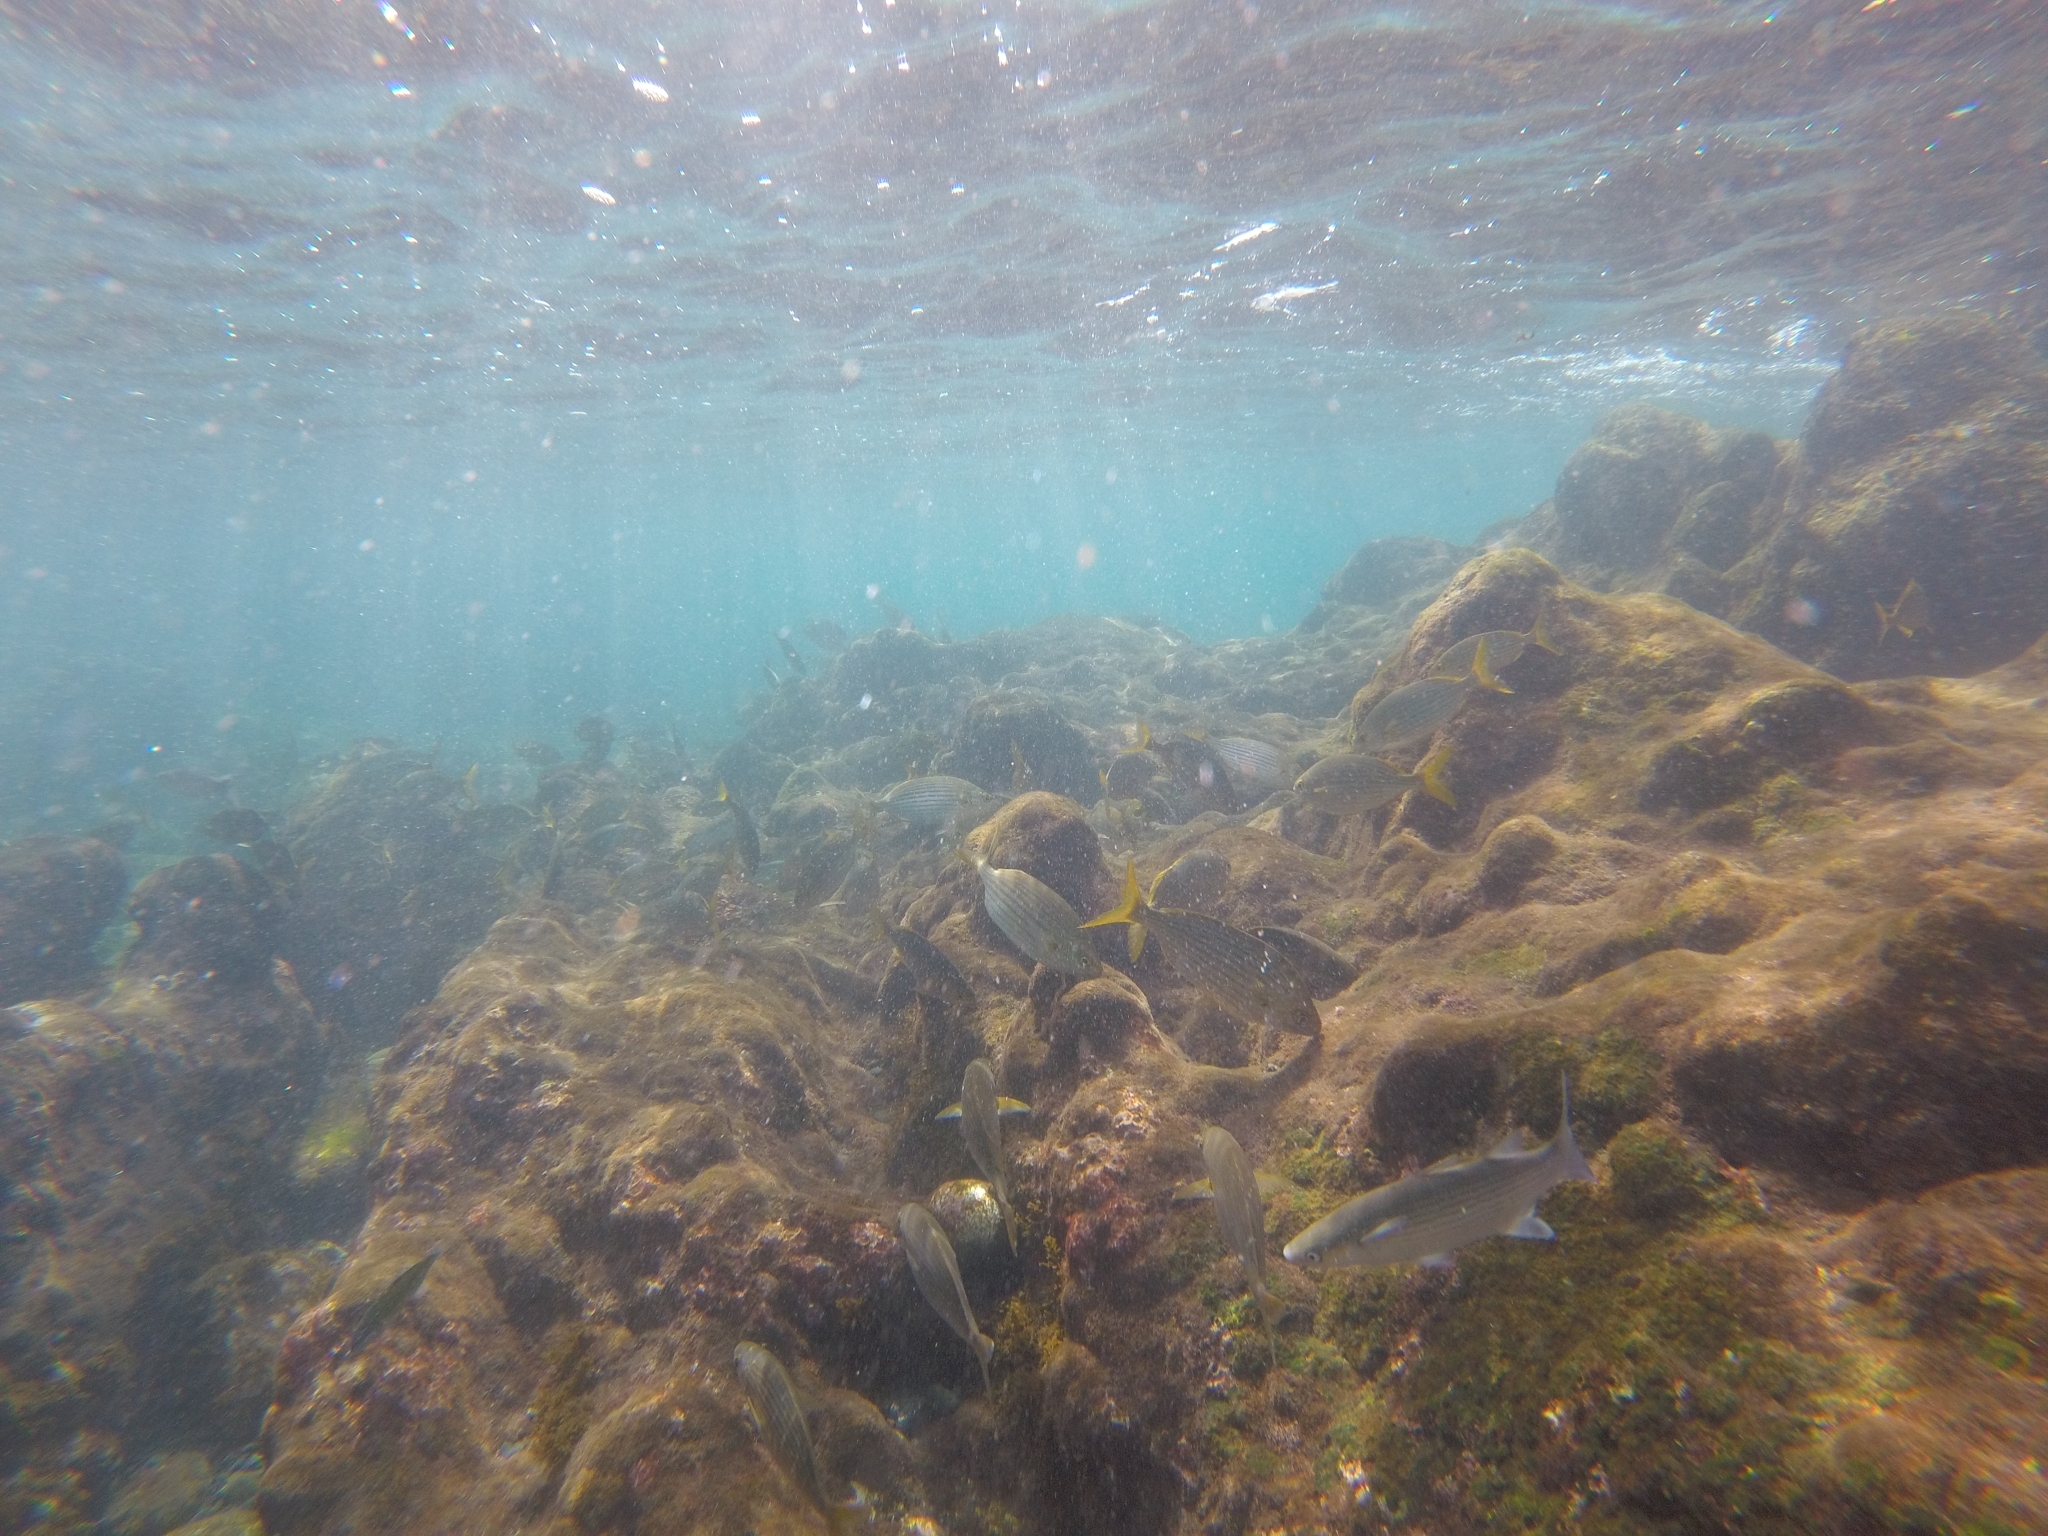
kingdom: Animalia
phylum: Chordata
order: Perciformes
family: Sparidae
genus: Sarpa
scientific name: Sarpa salpa
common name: Salema
